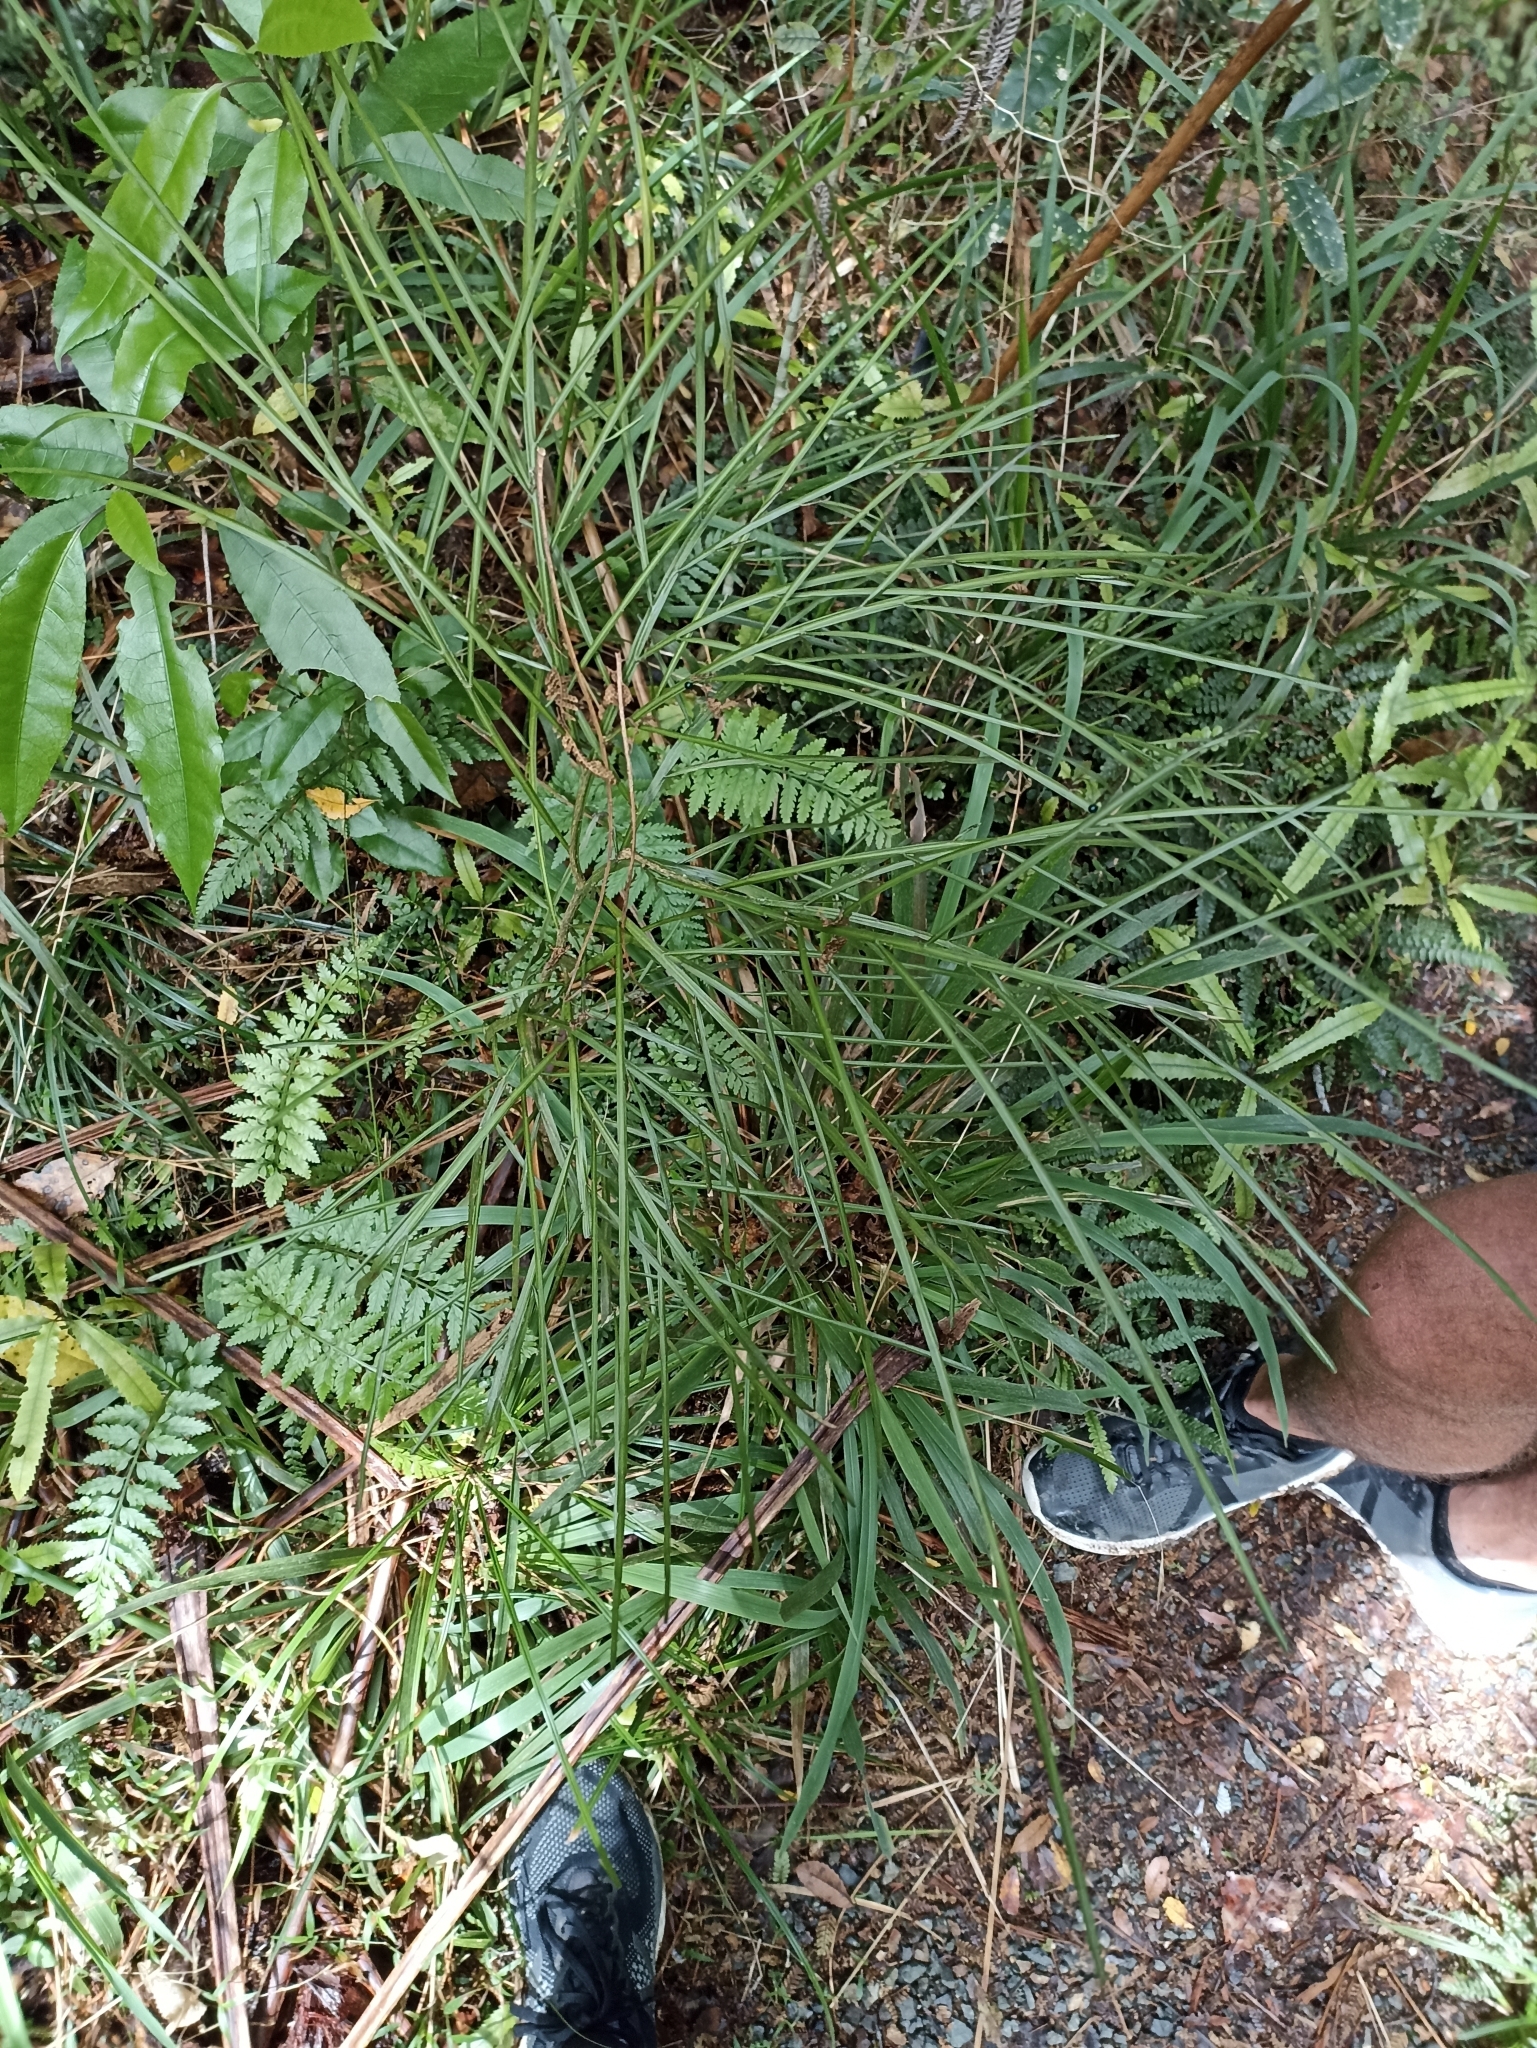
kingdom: Plantae
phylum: Tracheophyta
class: Magnoliopsida
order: Fabales
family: Fabaceae
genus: Carmichaelia
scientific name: Carmichaelia australis
